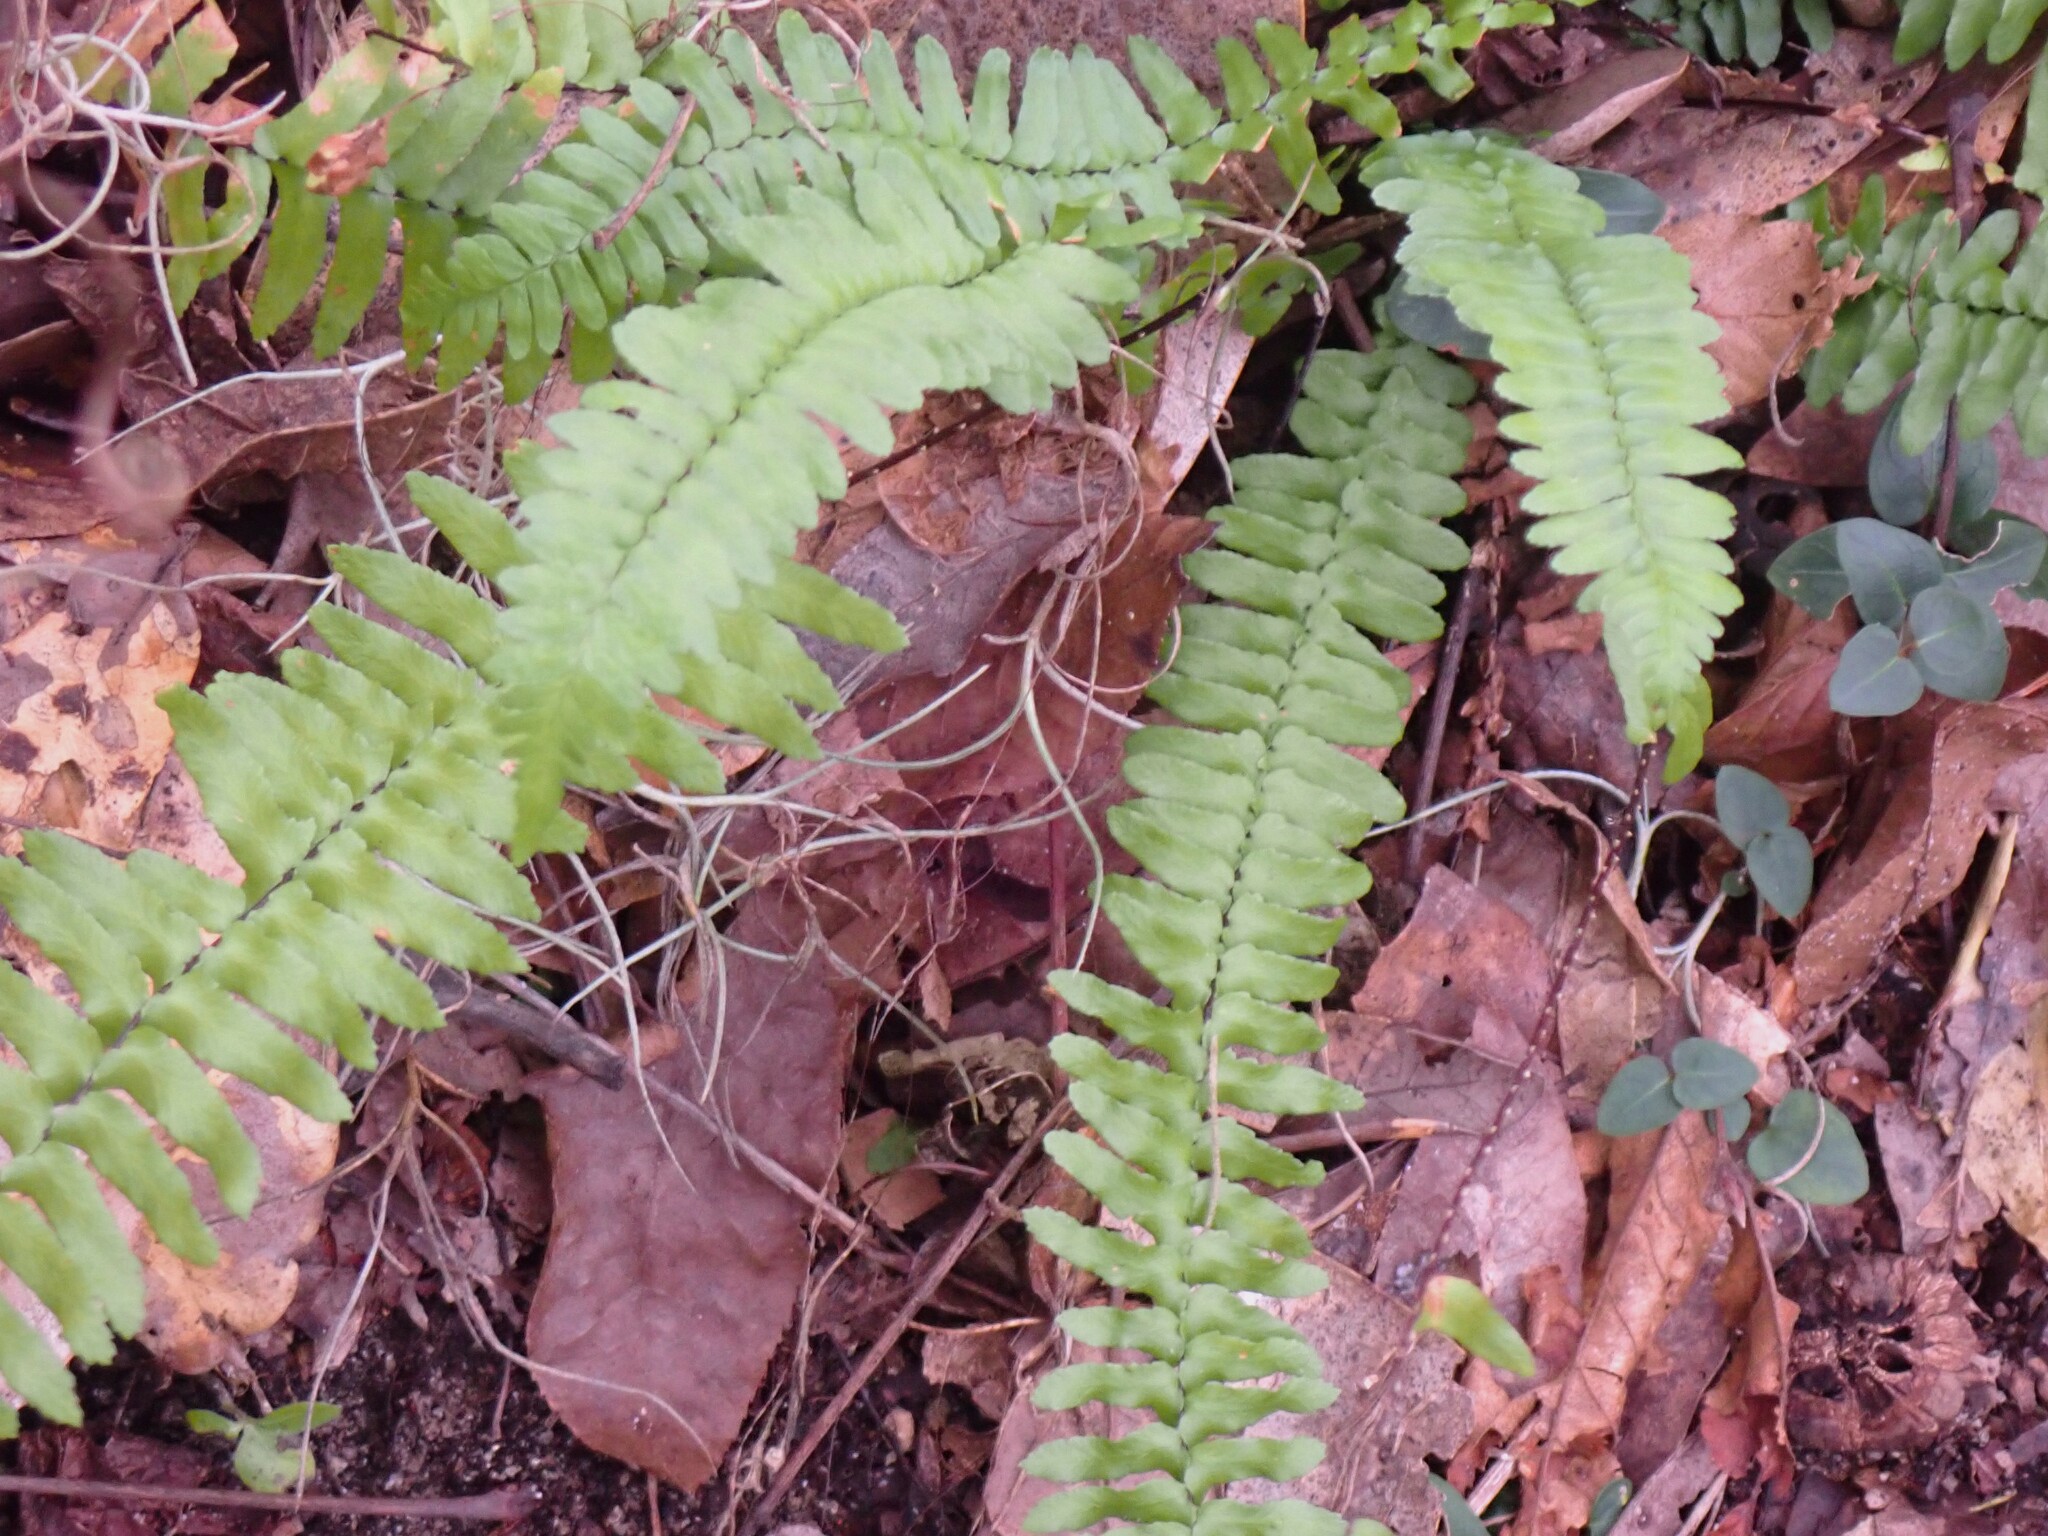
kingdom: Plantae
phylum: Tracheophyta
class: Polypodiopsida
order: Polypodiales
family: Aspleniaceae
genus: Asplenium
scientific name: Asplenium platyneuron
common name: Ebony spleenwort
